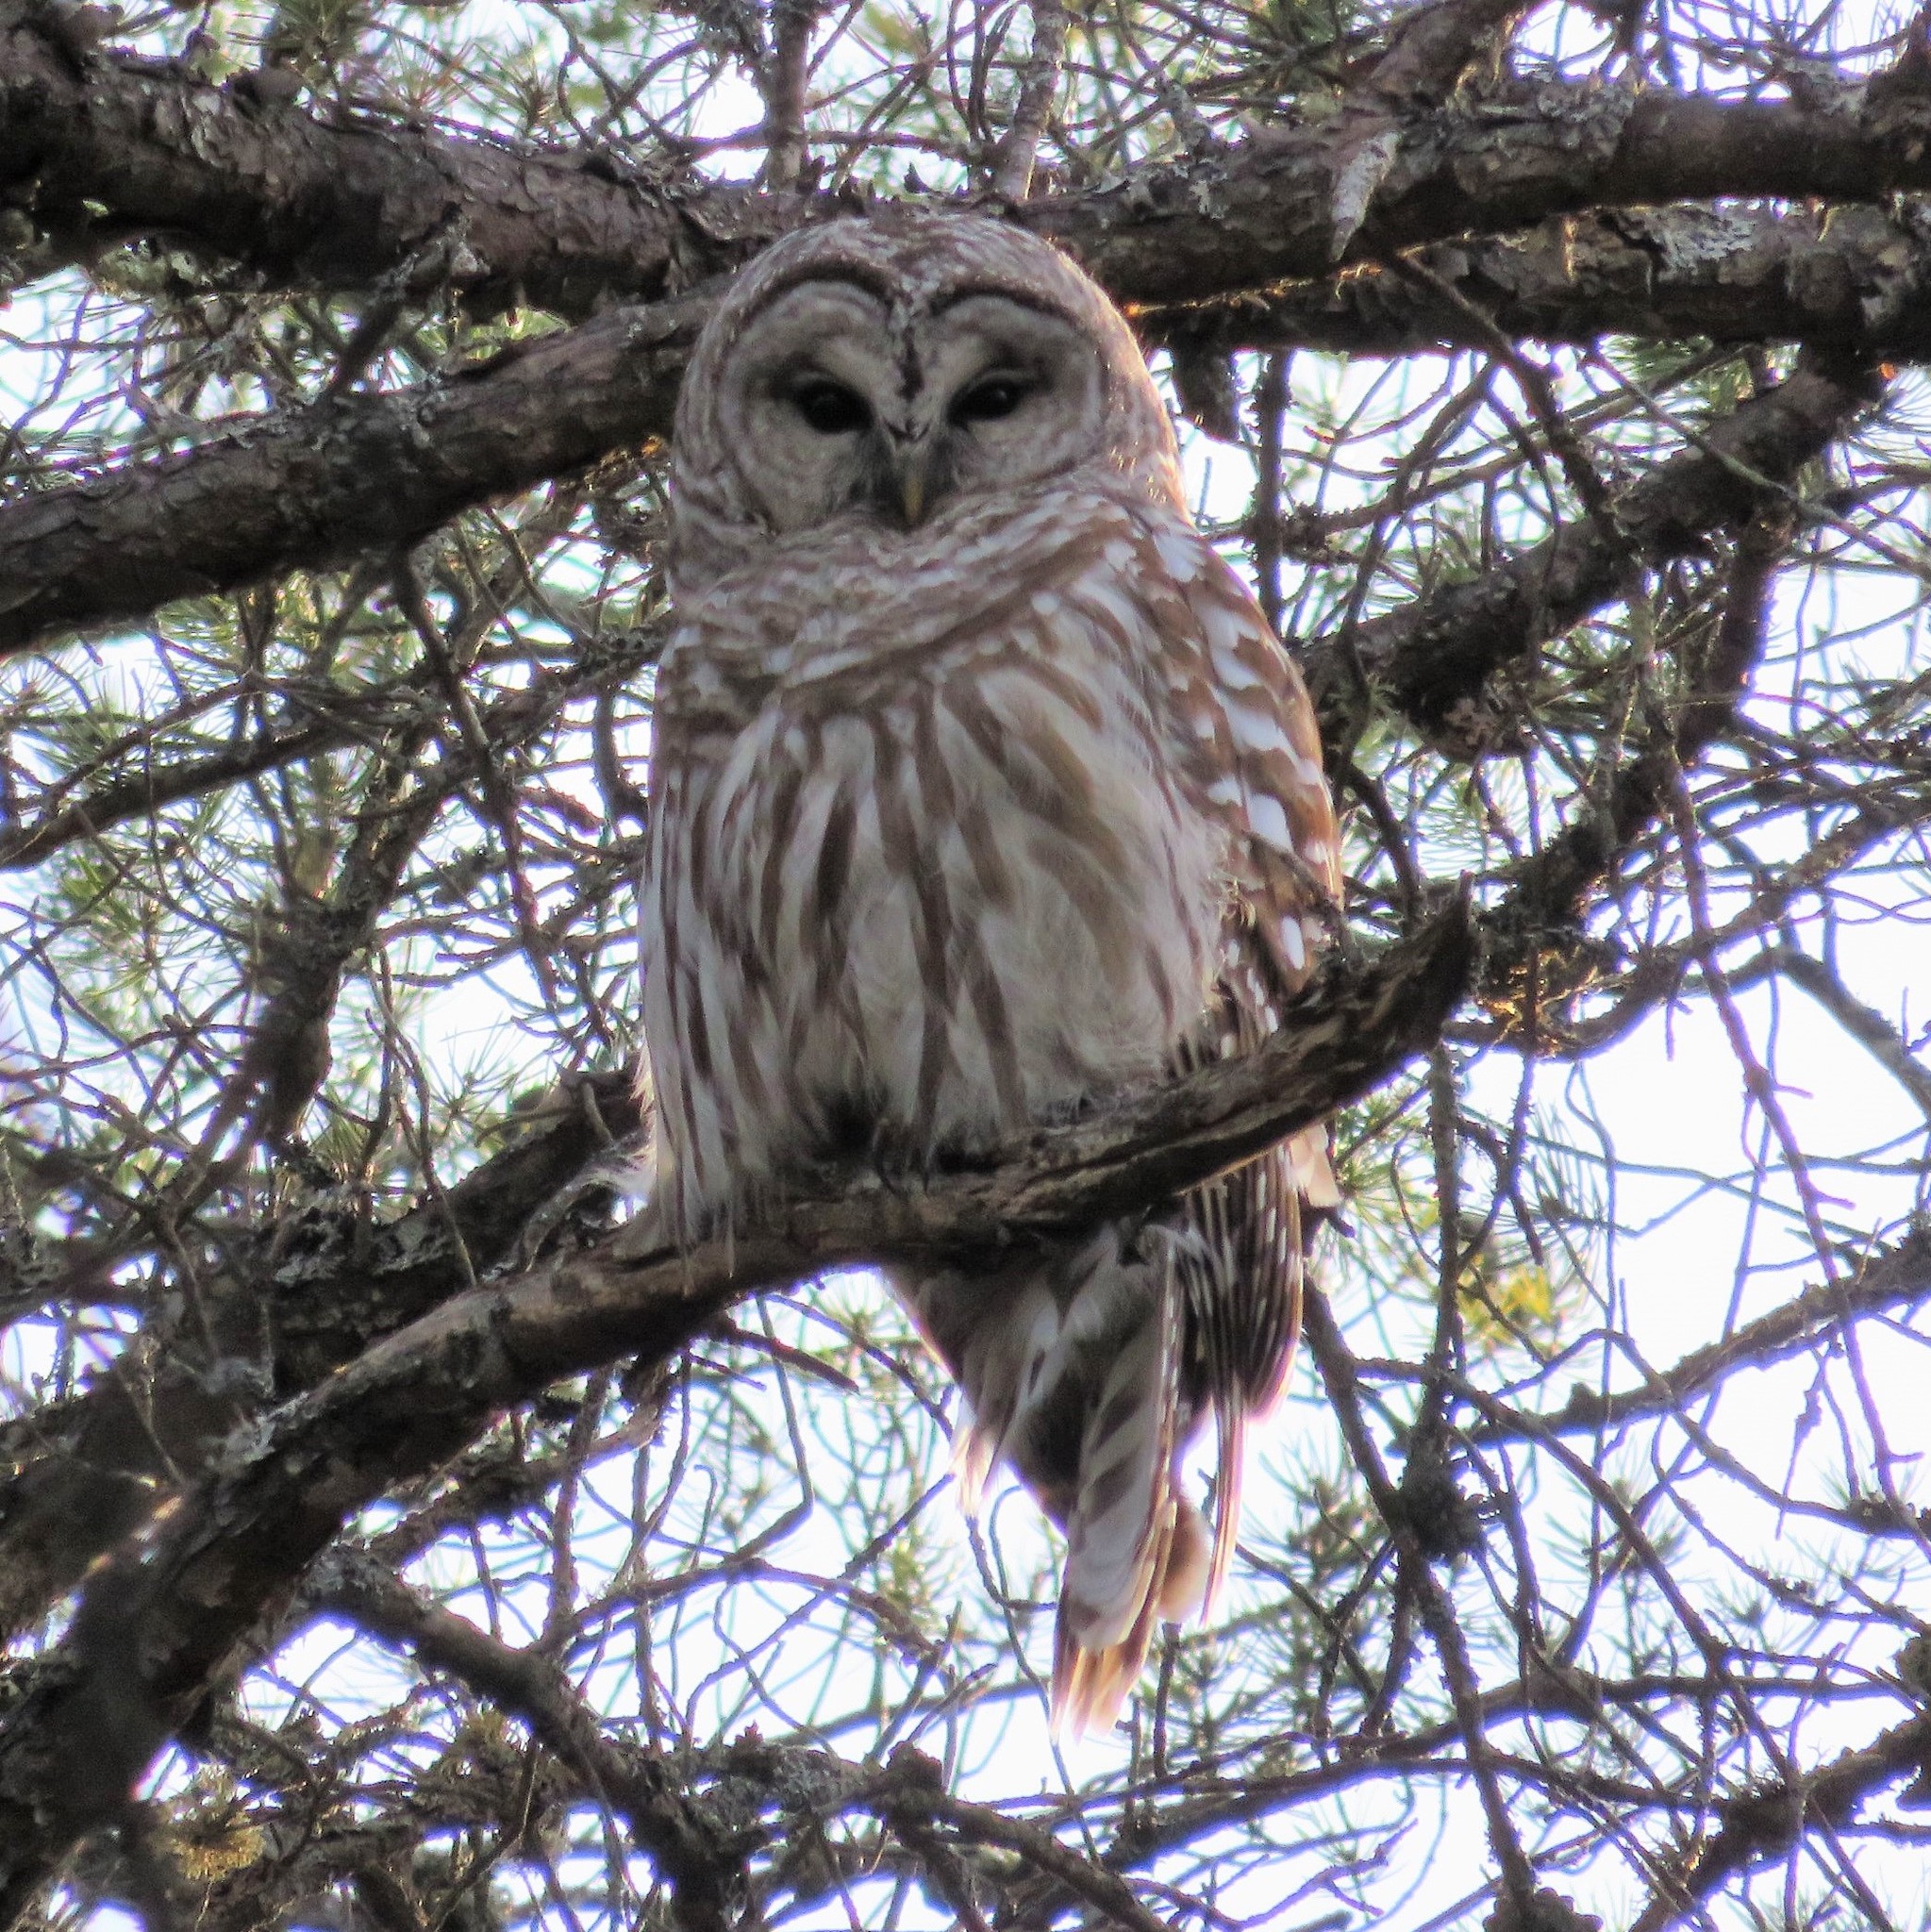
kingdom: Animalia
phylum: Chordata
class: Aves
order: Strigiformes
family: Strigidae
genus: Strix
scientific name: Strix varia
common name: Barred owl
